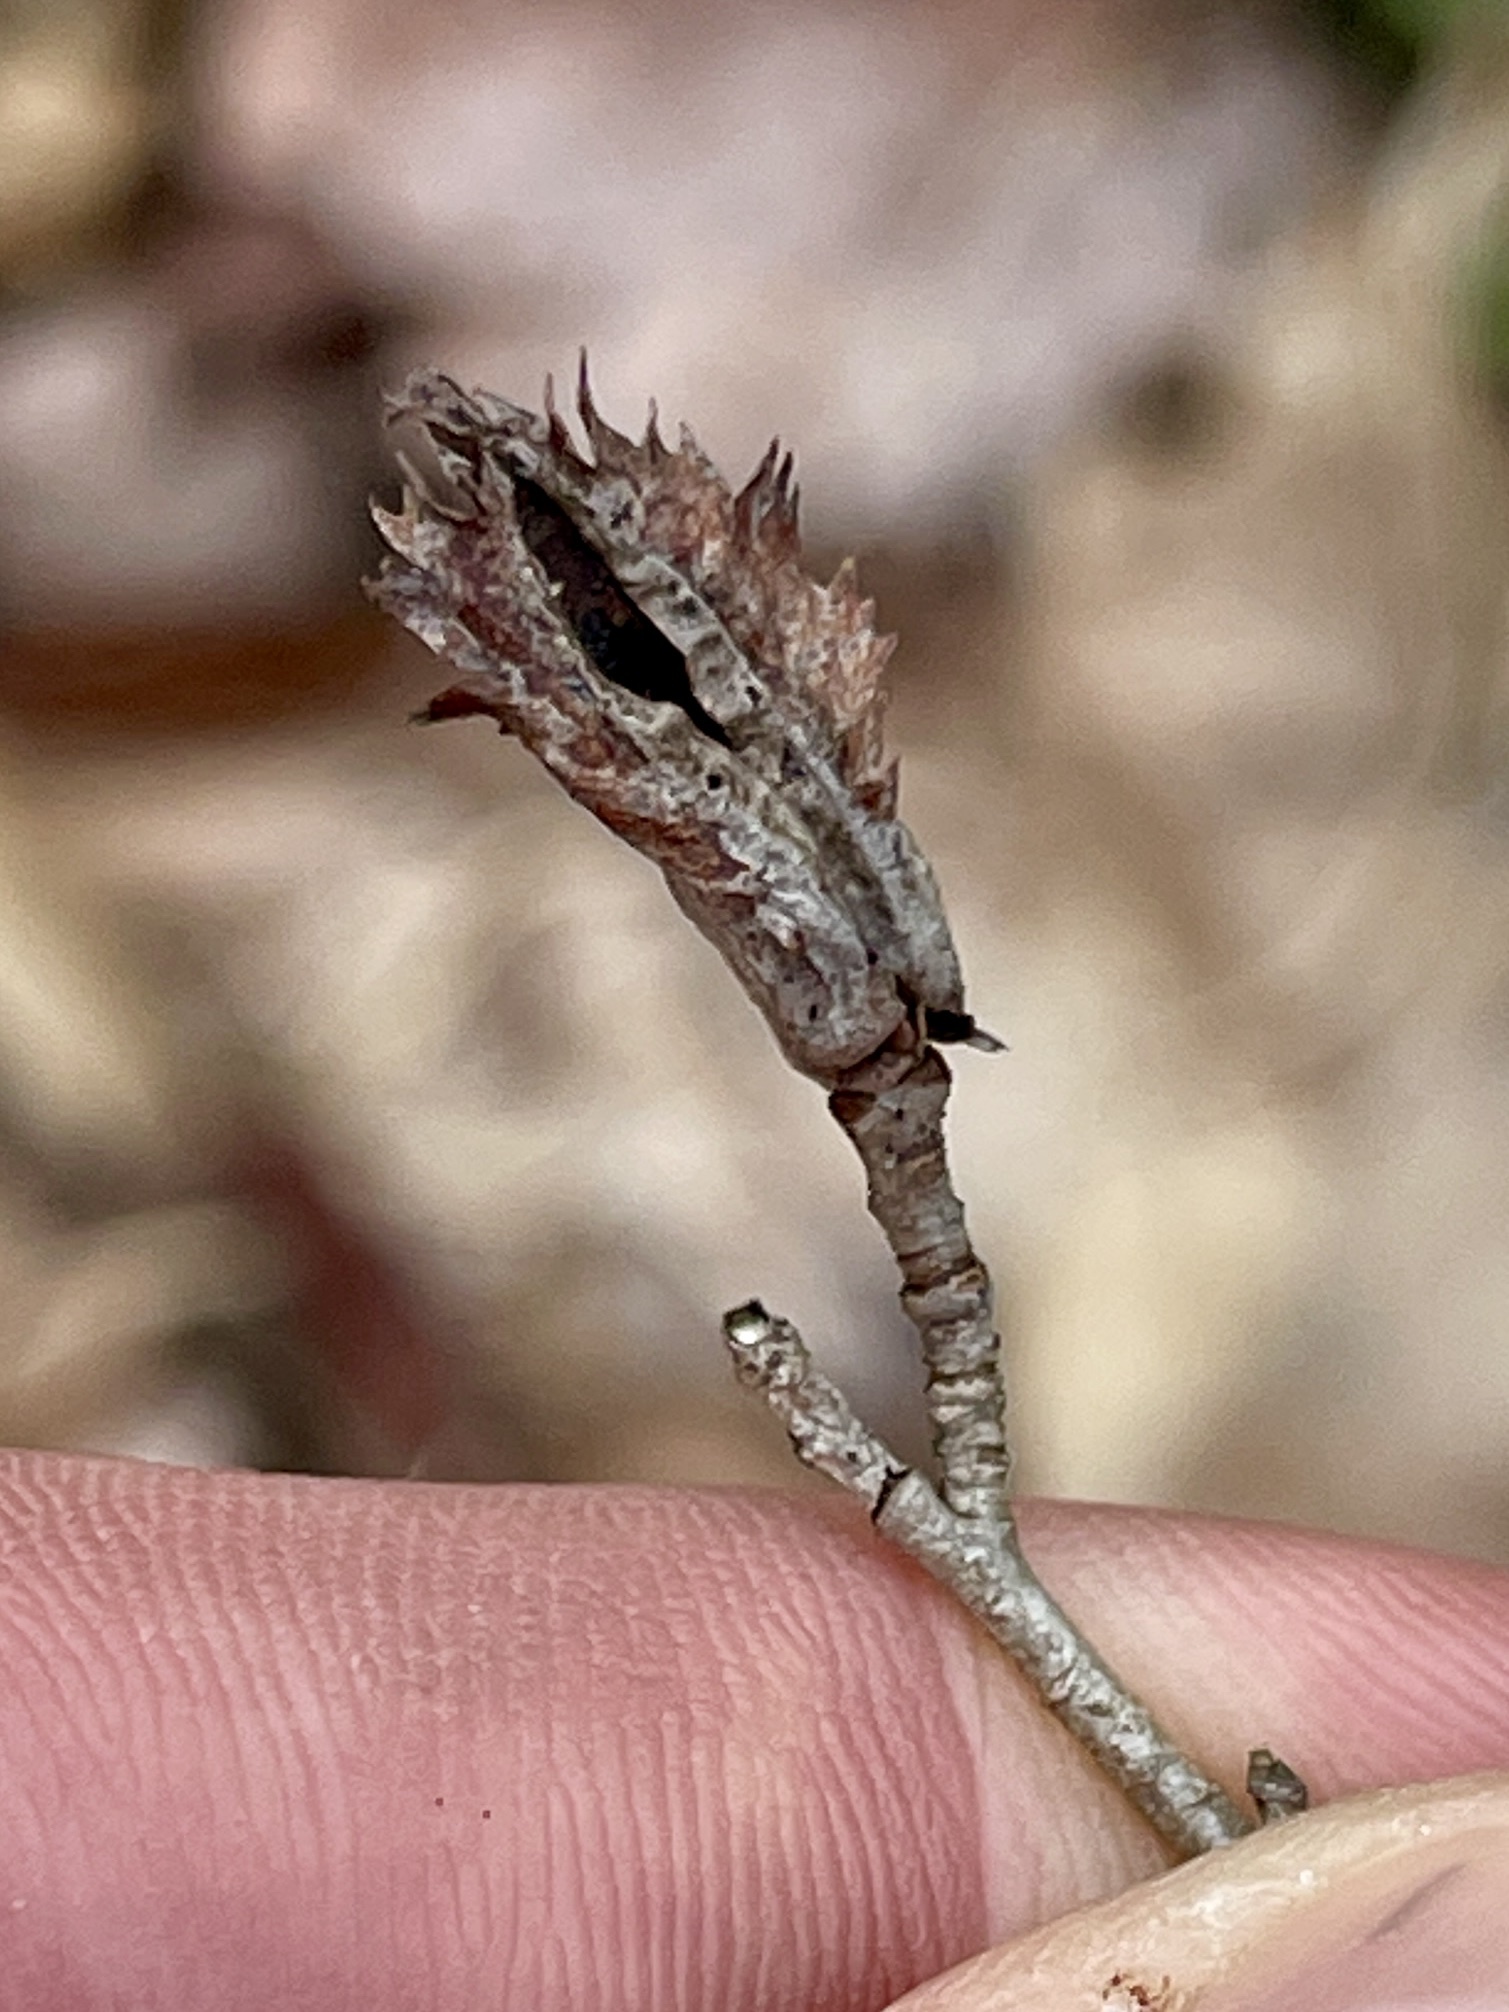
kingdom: Animalia
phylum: Arthropoda
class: Insecta
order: Diptera
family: Cecidomyiidae
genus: Blaesodiplosis
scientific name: Blaesodiplosis venae
